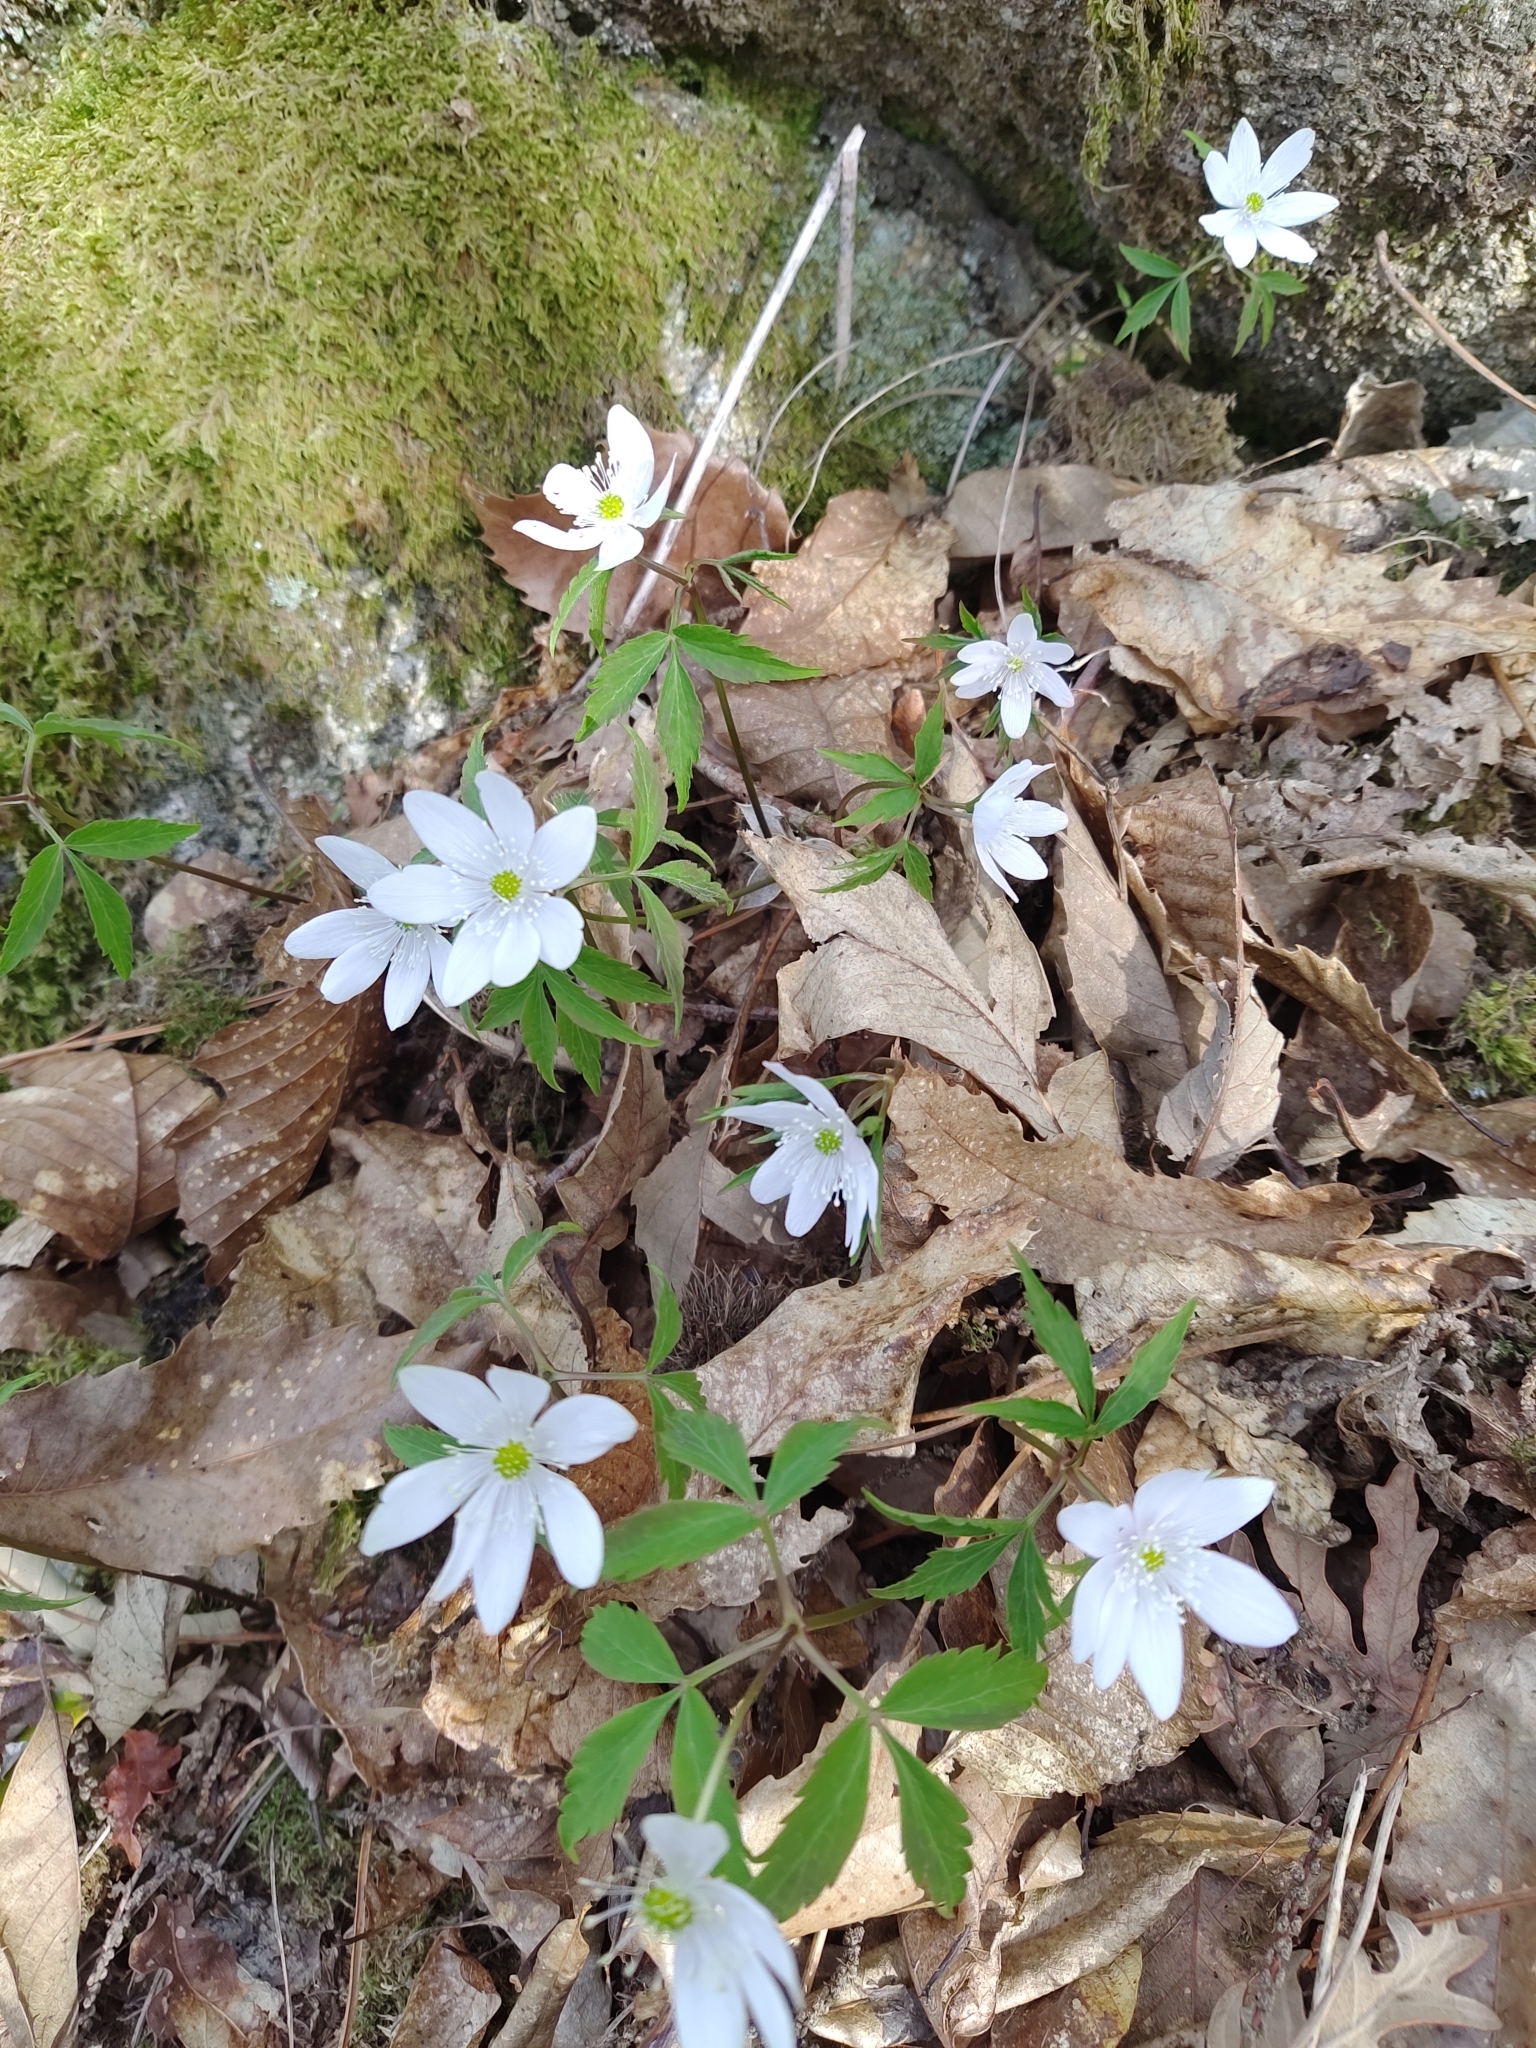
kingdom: Plantae
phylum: Tracheophyta
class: Magnoliopsida
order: Ranunculales
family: Ranunculaceae
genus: Anemone
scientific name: Anemone trifolia
